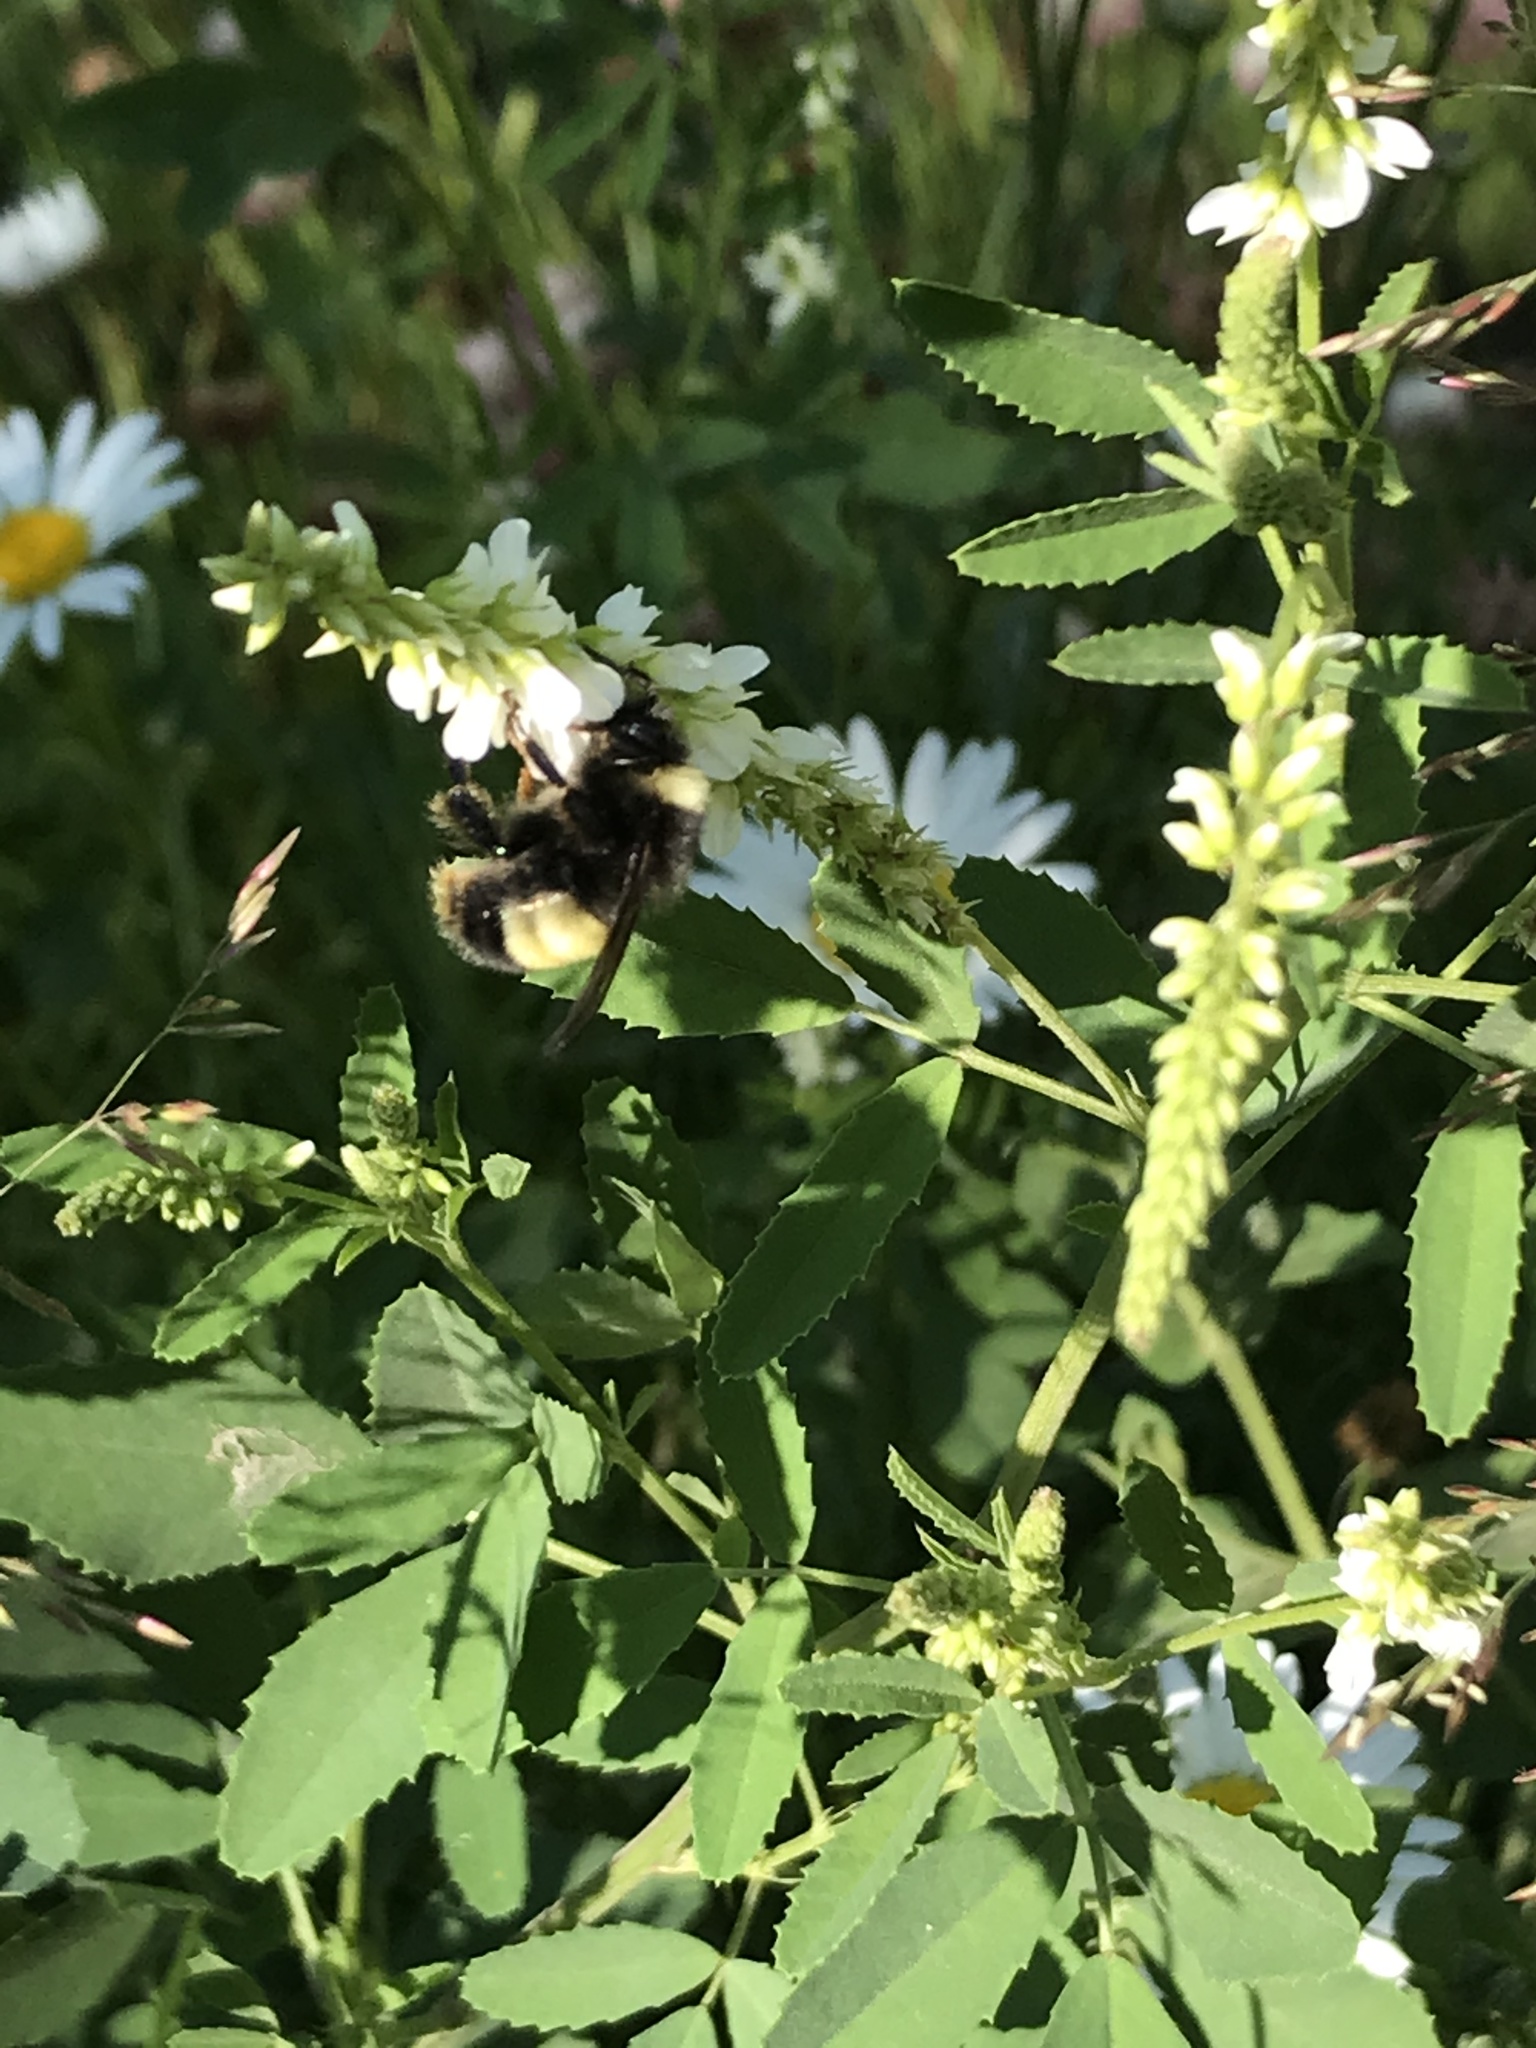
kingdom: Animalia
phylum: Arthropoda
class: Insecta
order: Hymenoptera
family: Apidae
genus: Bombus
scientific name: Bombus terricola
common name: Yellow-banded bumble bee
